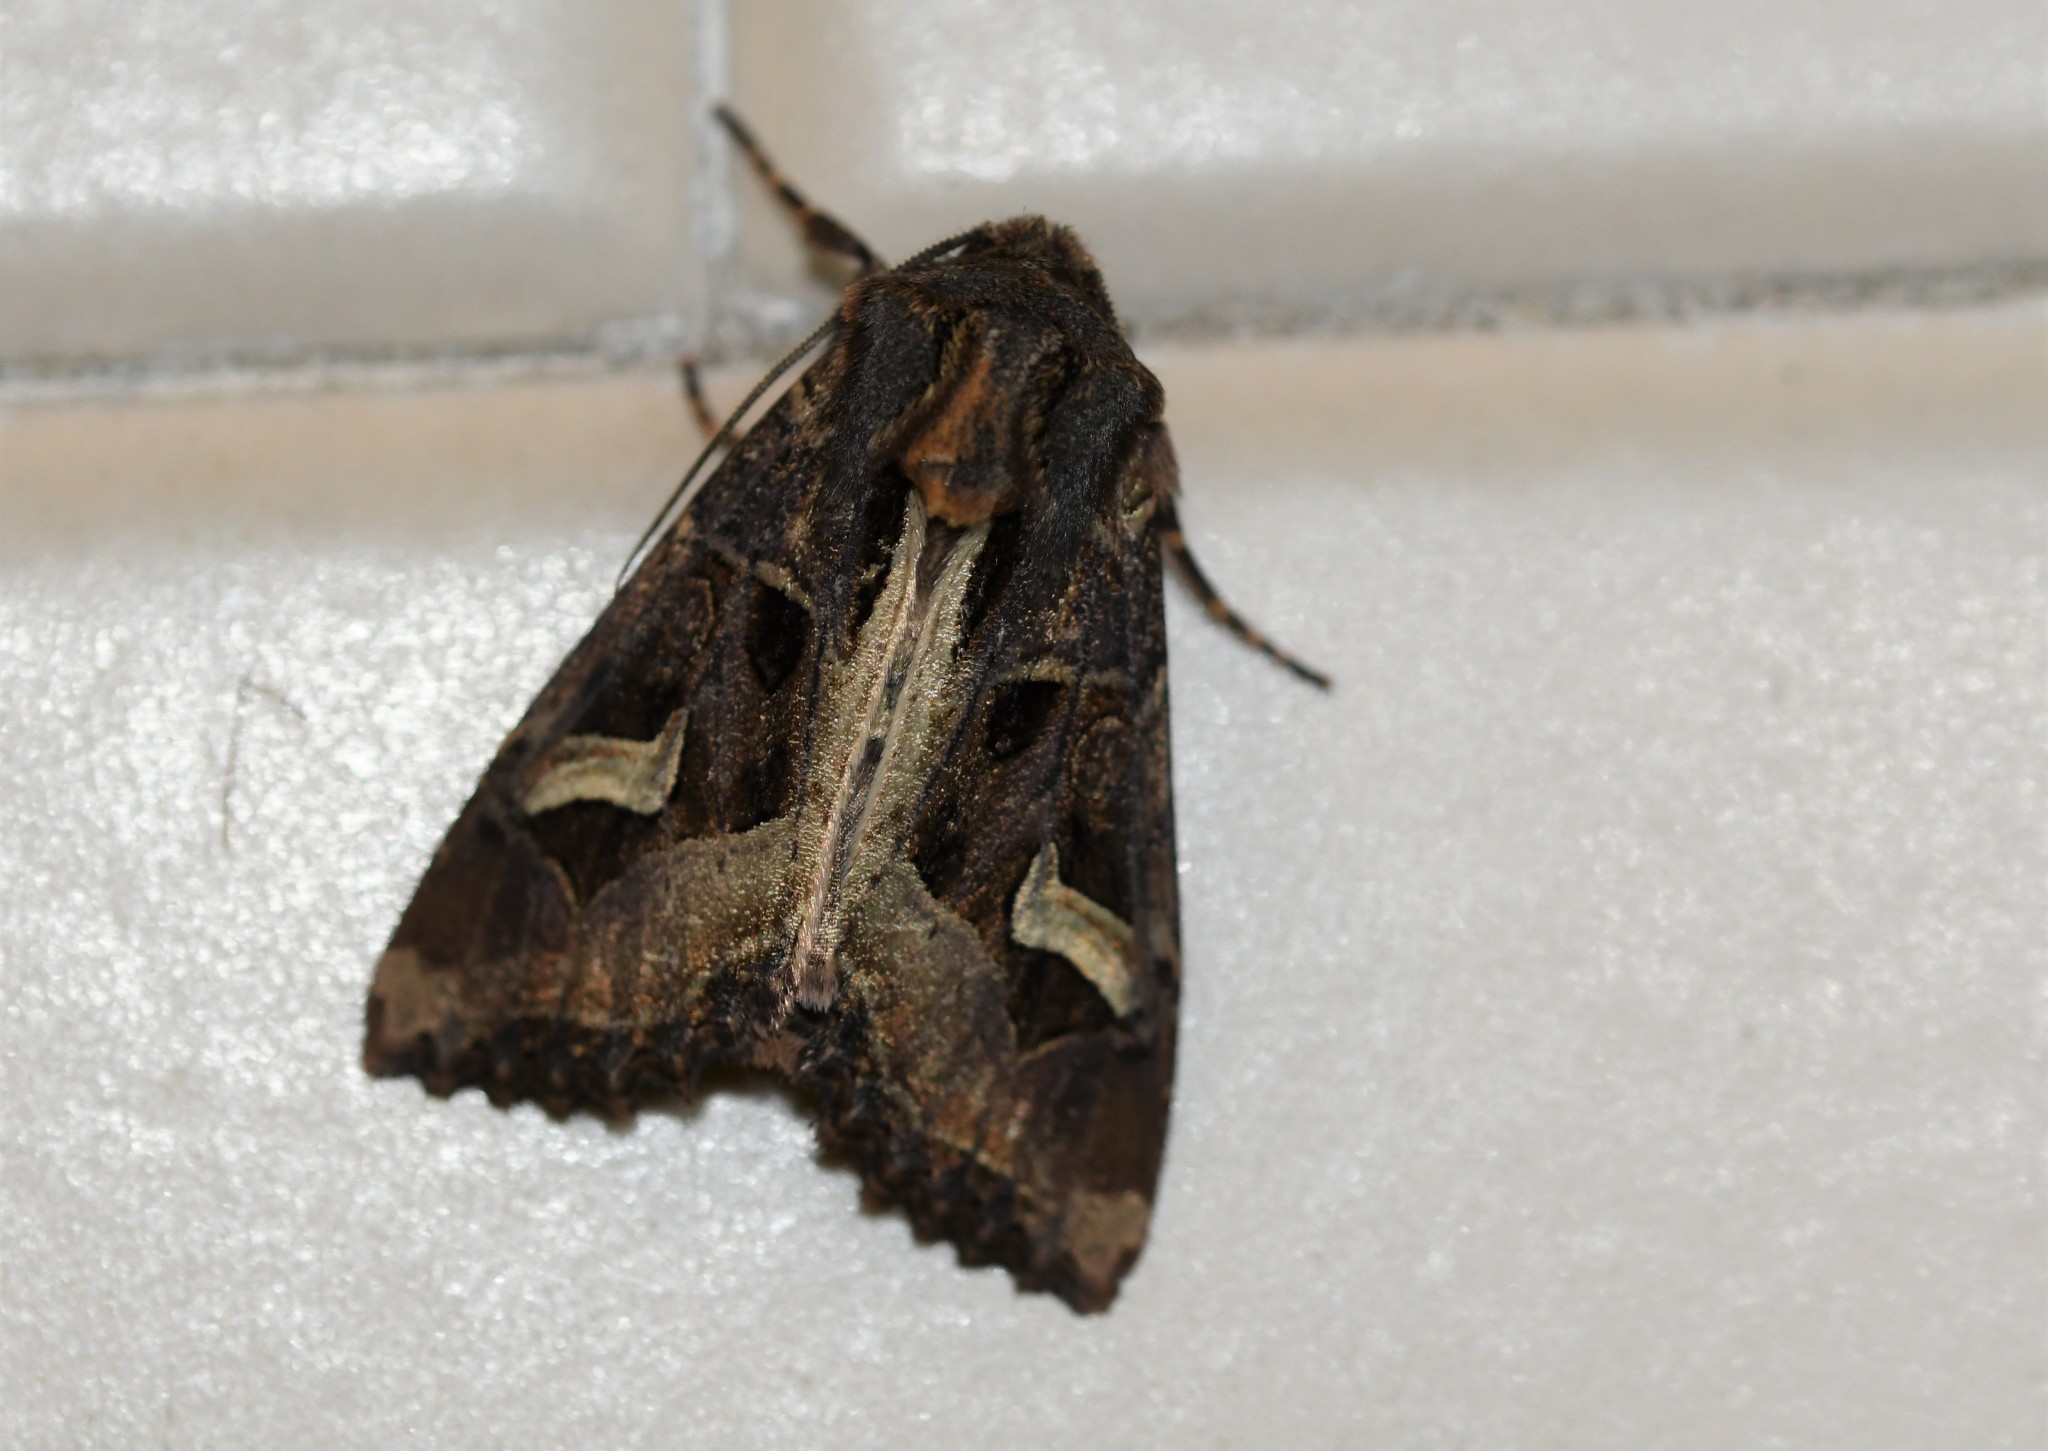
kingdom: Animalia
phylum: Arthropoda
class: Insecta
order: Lepidoptera
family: Noctuidae
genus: Trigonophora
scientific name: Trigonophora flammea
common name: Flame brocade
